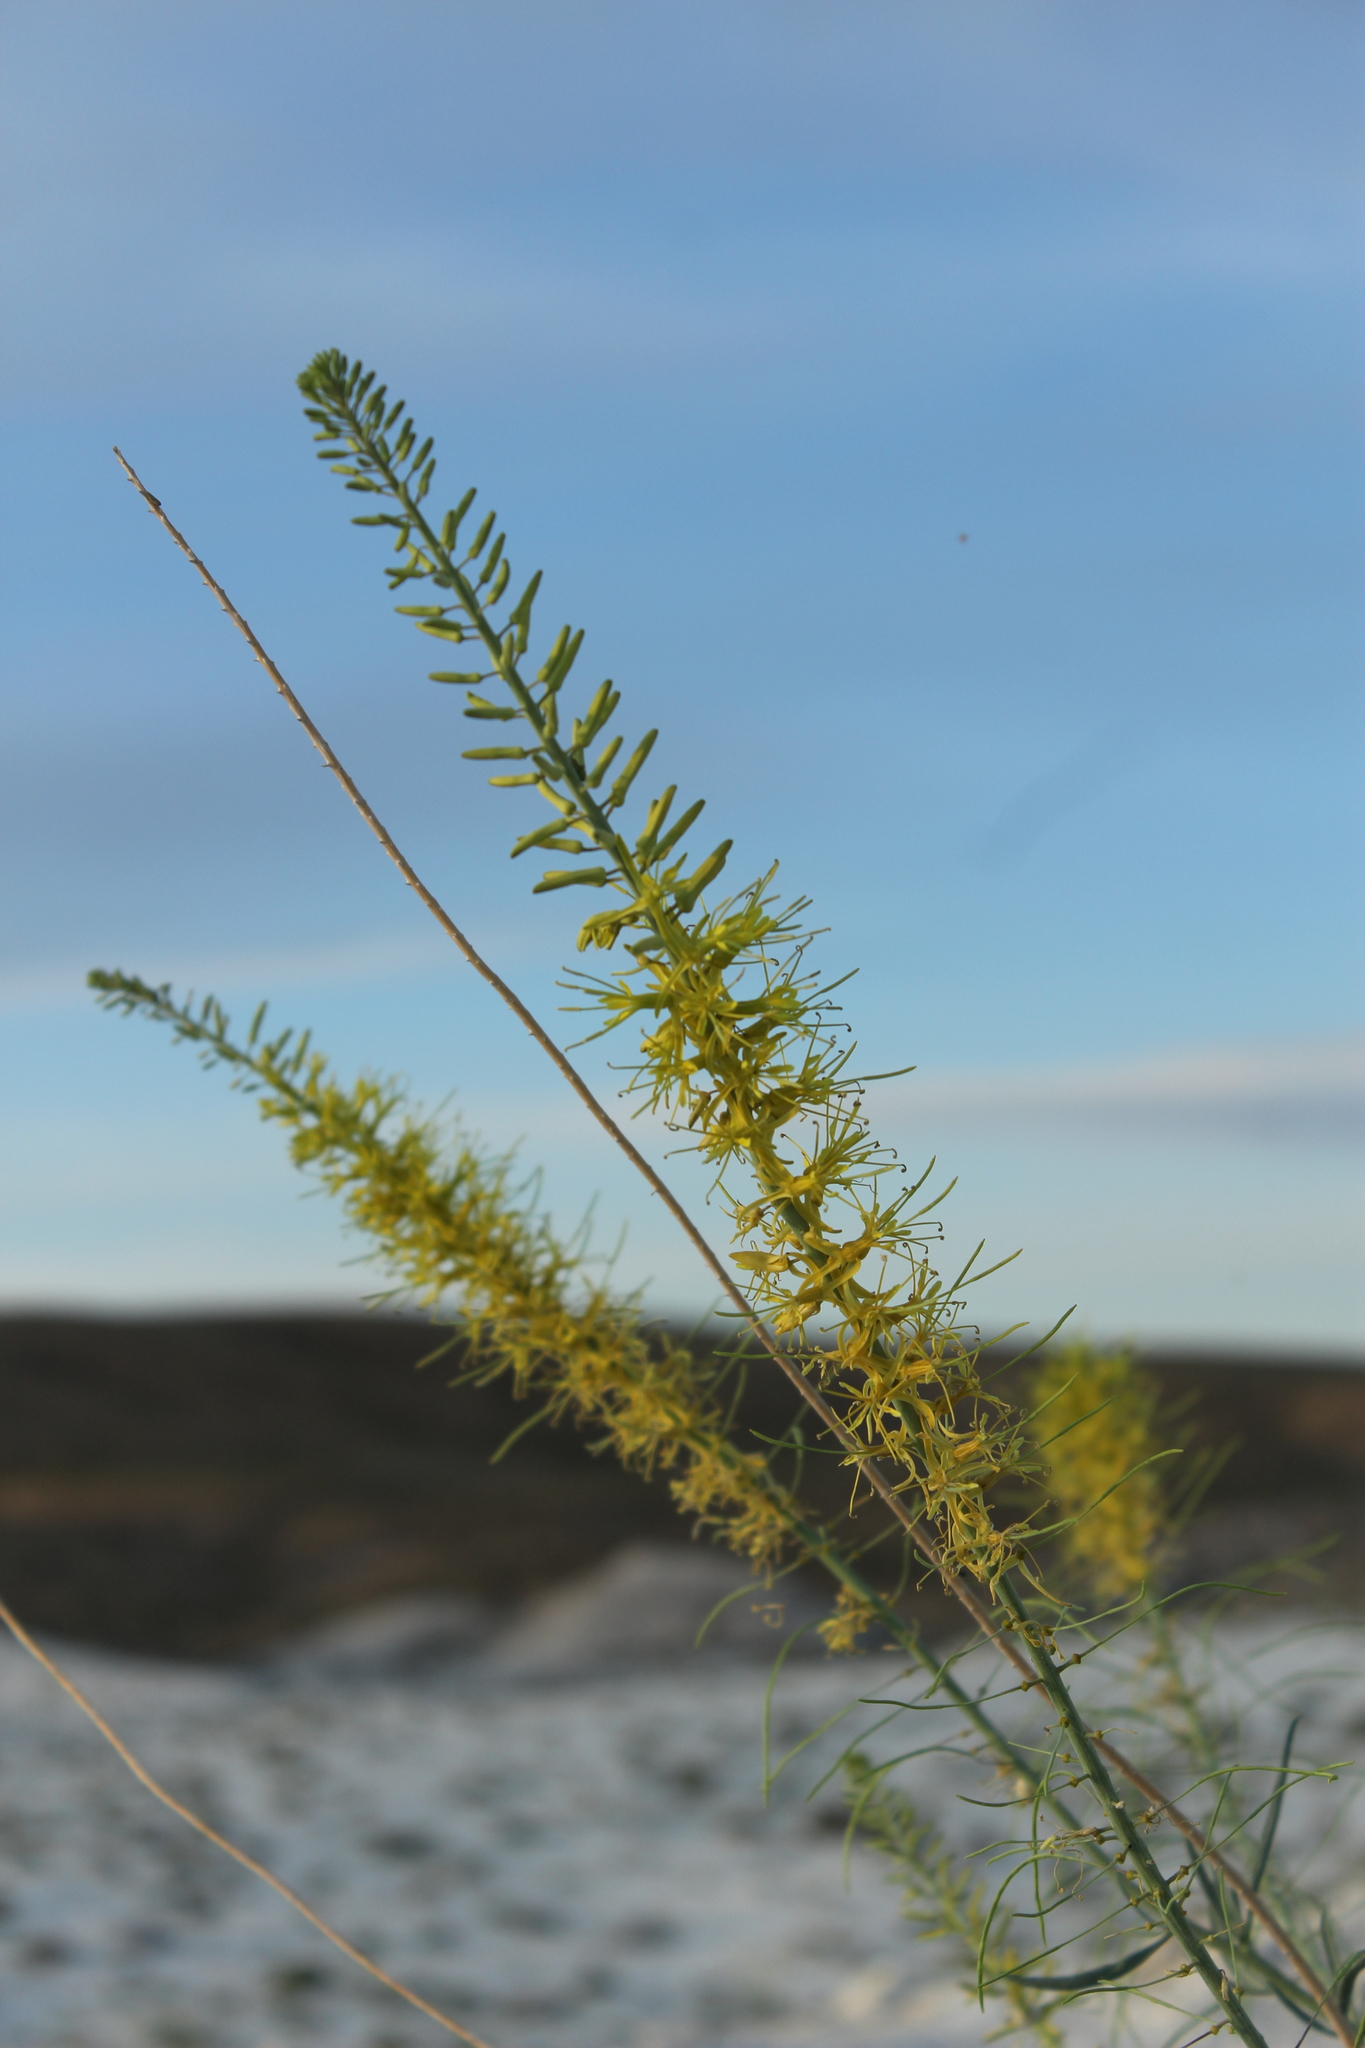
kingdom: Plantae
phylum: Tracheophyta
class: Magnoliopsida
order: Brassicales
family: Brassicaceae
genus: Stanleya
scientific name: Stanleya pinnata
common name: Prince's-plume
